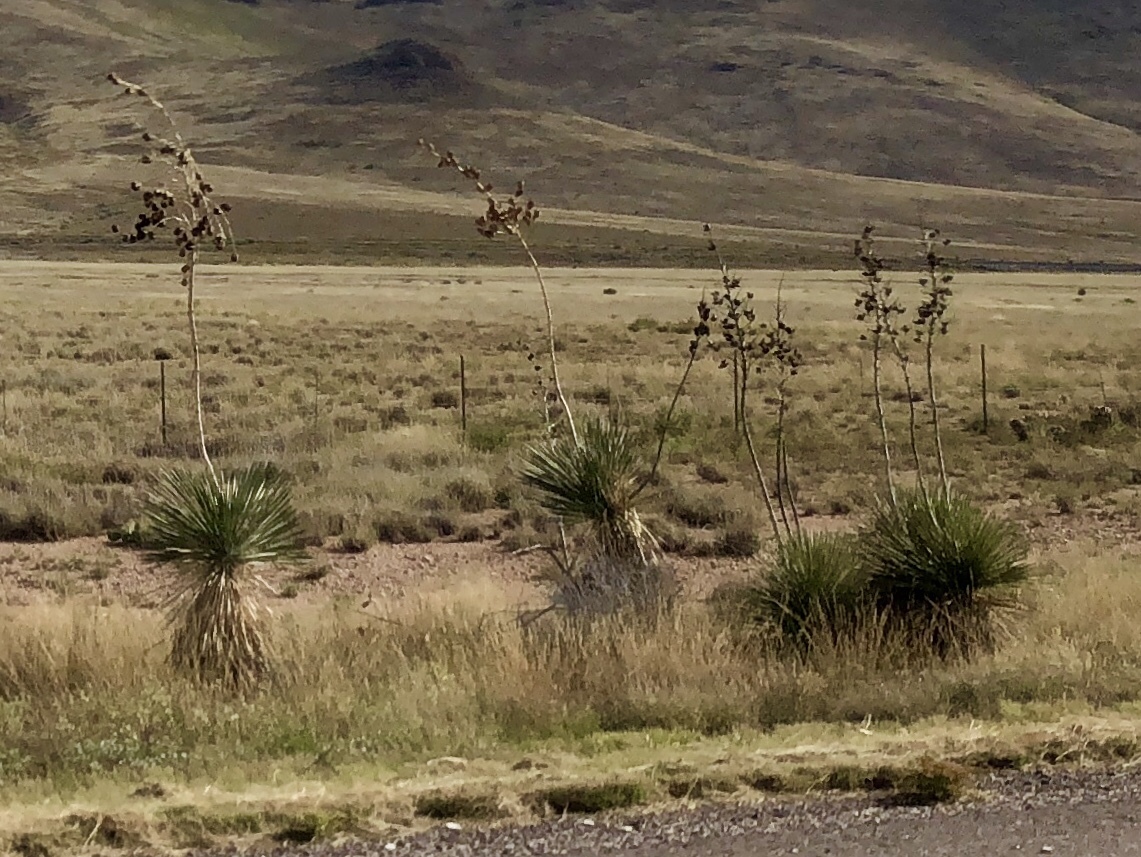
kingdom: Plantae
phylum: Tracheophyta
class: Liliopsida
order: Asparagales
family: Asparagaceae
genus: Yucca
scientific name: Yucca elata
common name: Palmella
